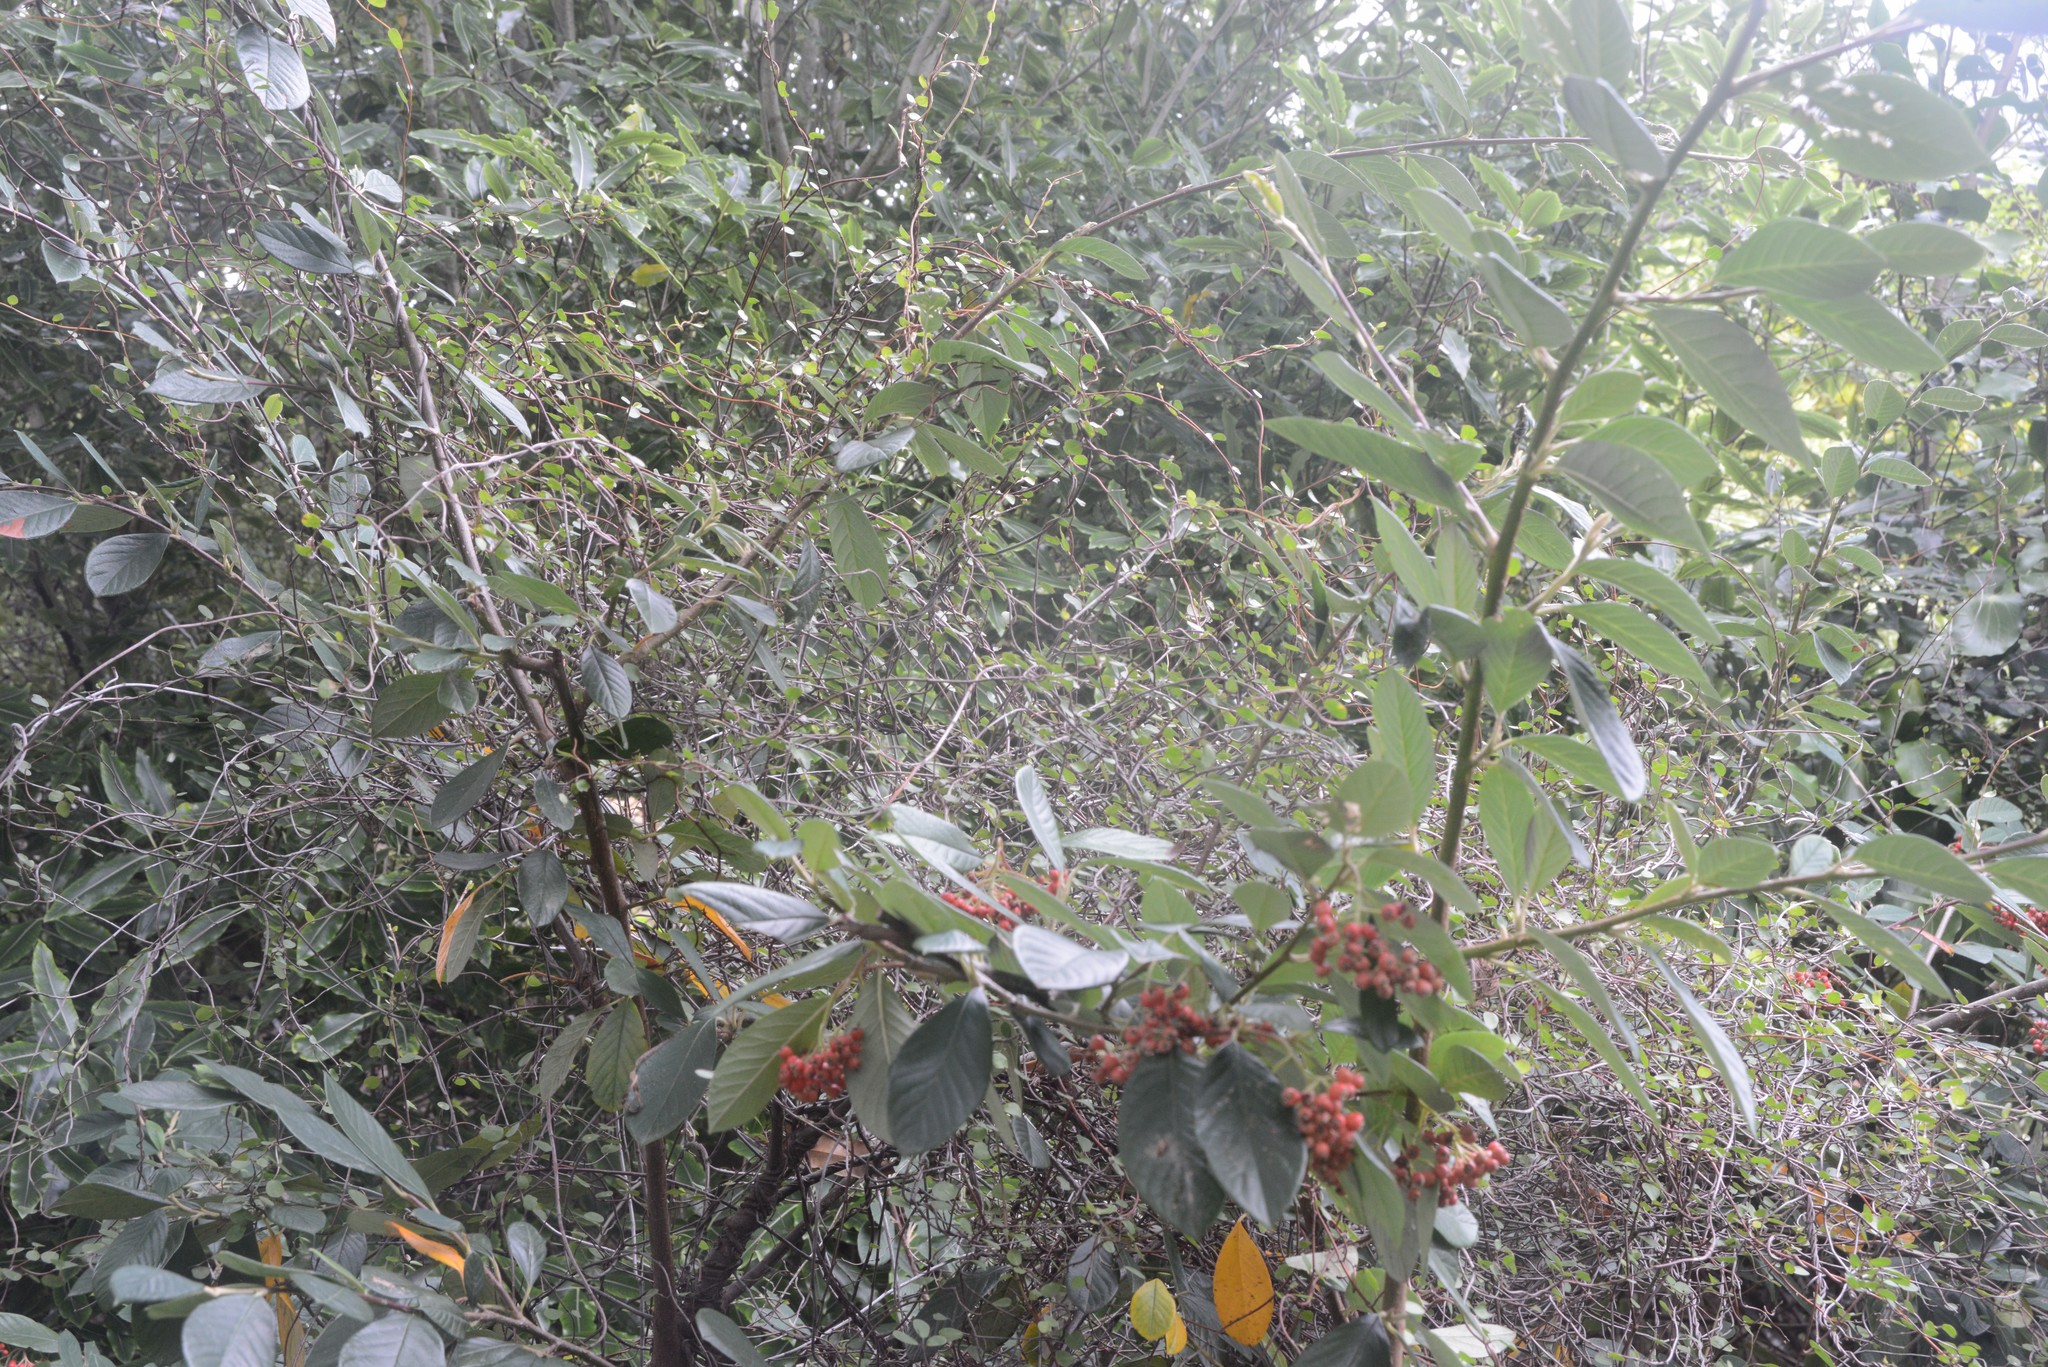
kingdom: Plantae
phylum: Tracheophyta
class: Magnoliopsida
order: Caryophyllales
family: Polygonaceae
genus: Muehlenbeckia
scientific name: Muehlenbeckia complexa
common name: Wireplant
